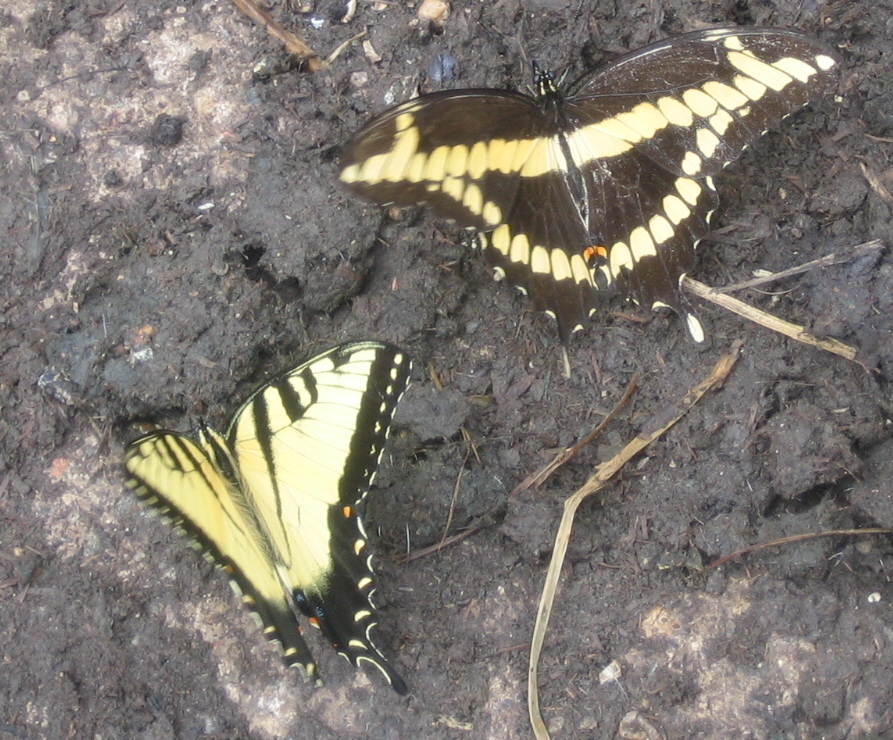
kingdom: Animalia
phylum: Arthropoda
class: Insecta
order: Lepidoptera
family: Papilionidae
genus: Papilio
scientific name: Papilio cresphontes
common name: Giant swallowtail
